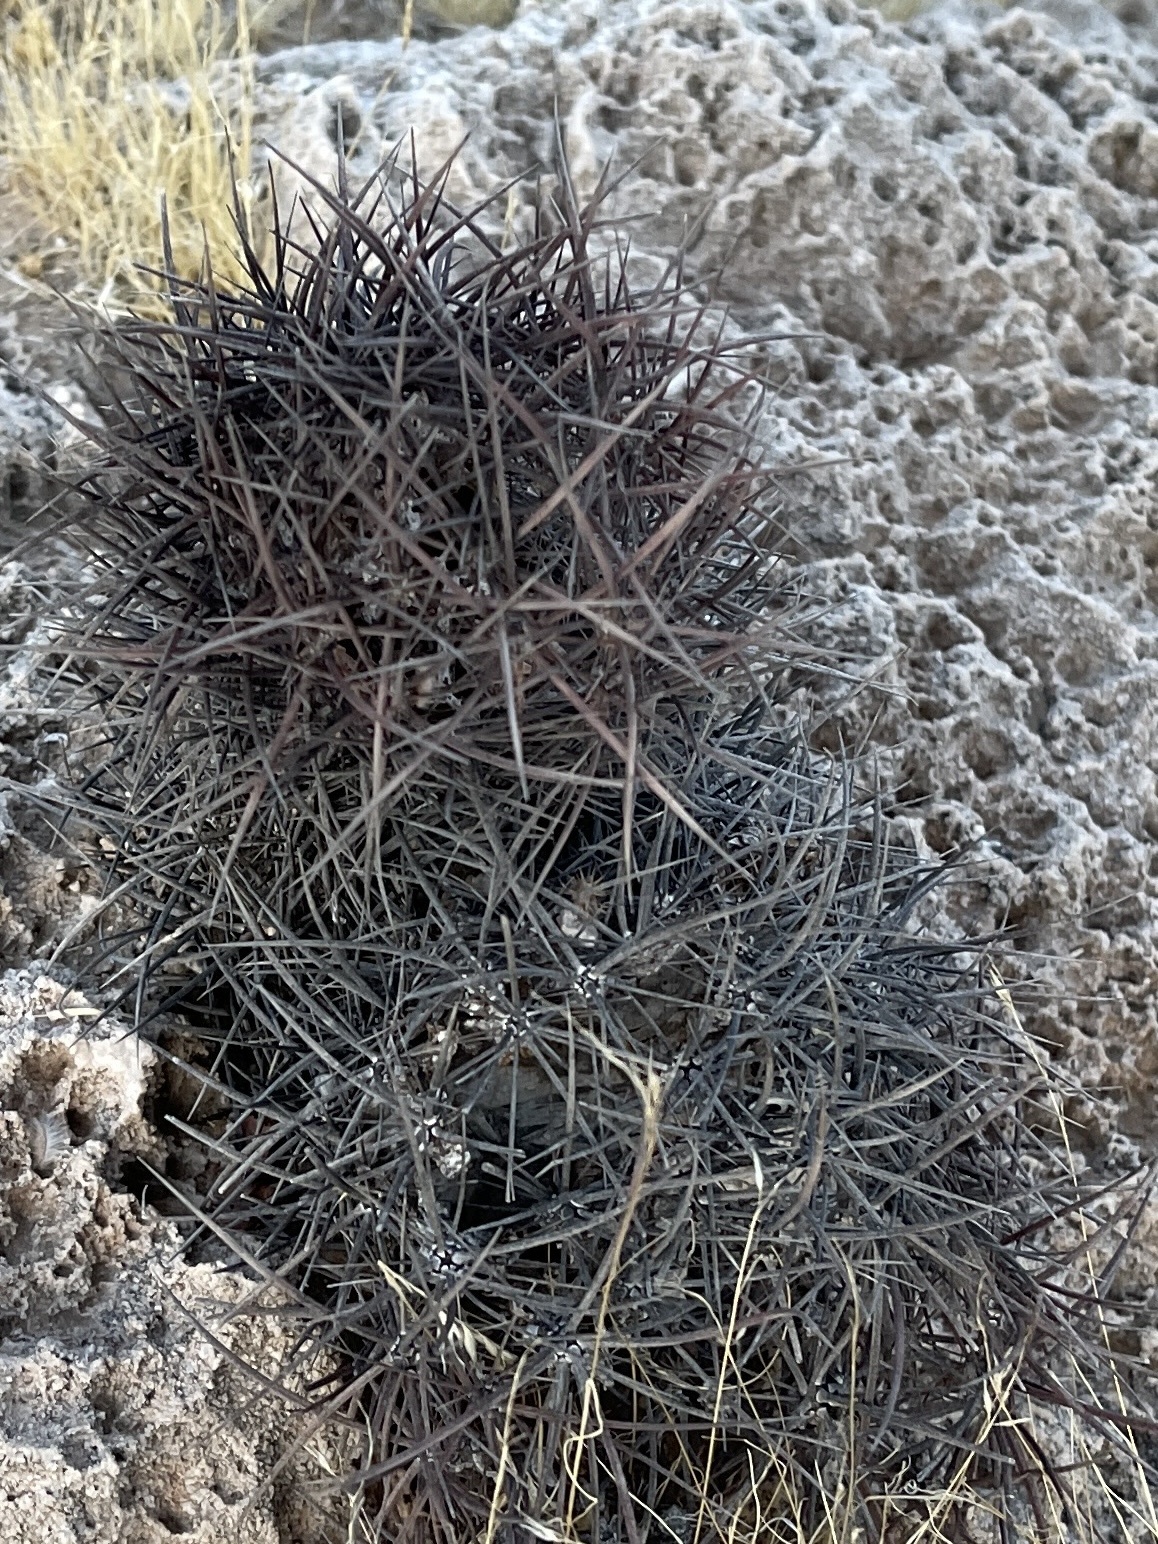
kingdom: Plantae
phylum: Tracheophyta
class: Magnoliopsida
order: Caryophyllales
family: Cactaceae
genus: Sclerocactus
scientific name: Sclerocactus johnsonii
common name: Eight-spine fishhook cactus
